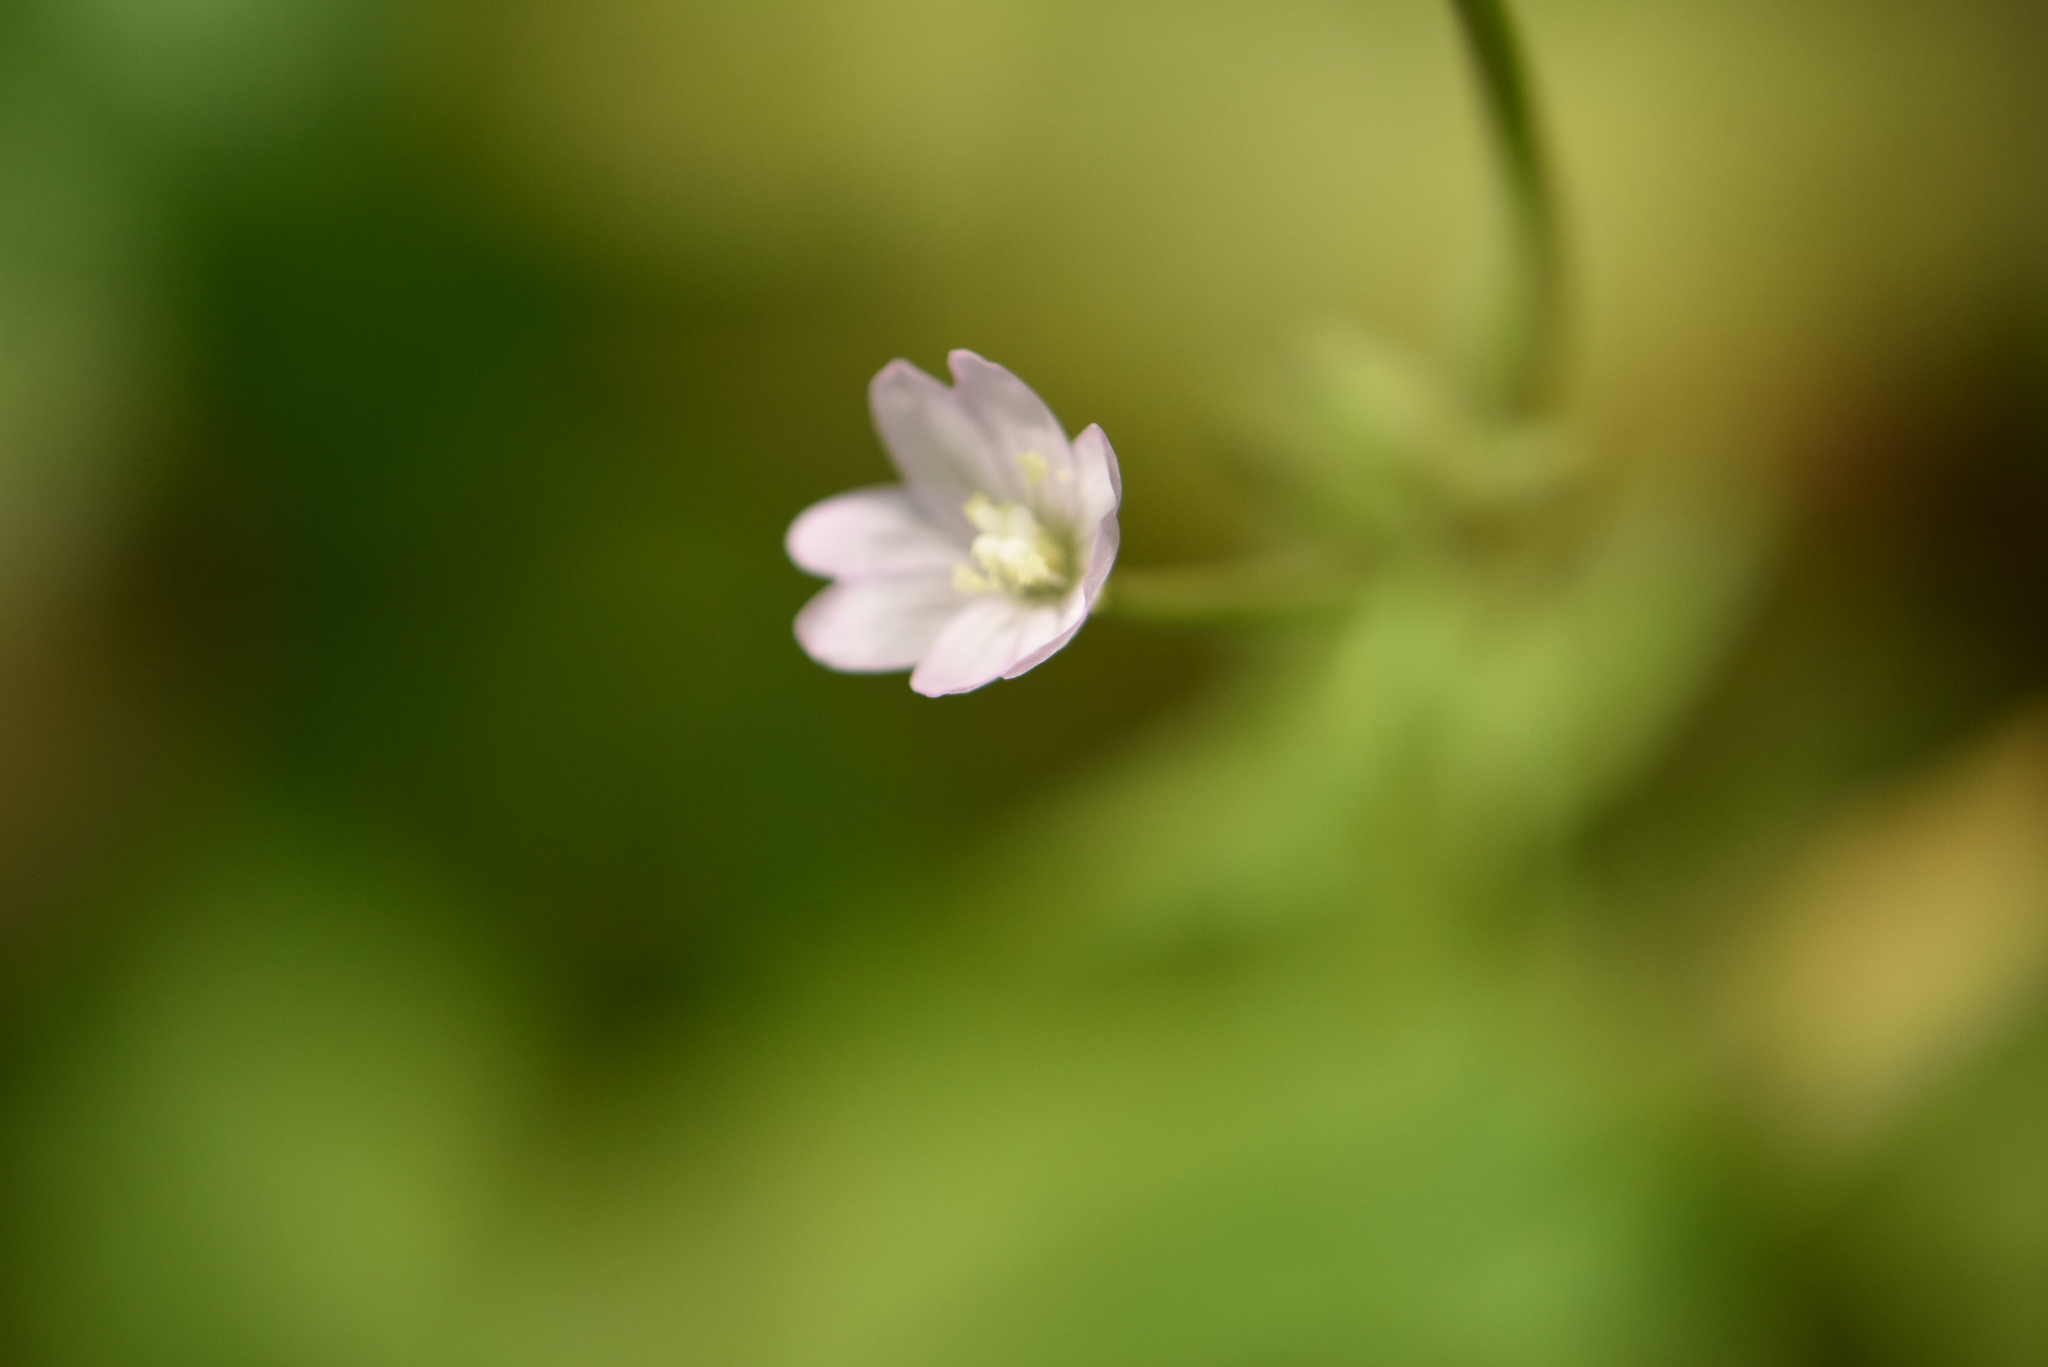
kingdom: Plantae
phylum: Tracheophyta
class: Magnoliopsida
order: Myrtales
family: Onagraceae
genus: Epilobium
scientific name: Epilobium montanum
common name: Broad-leaved willowherb
